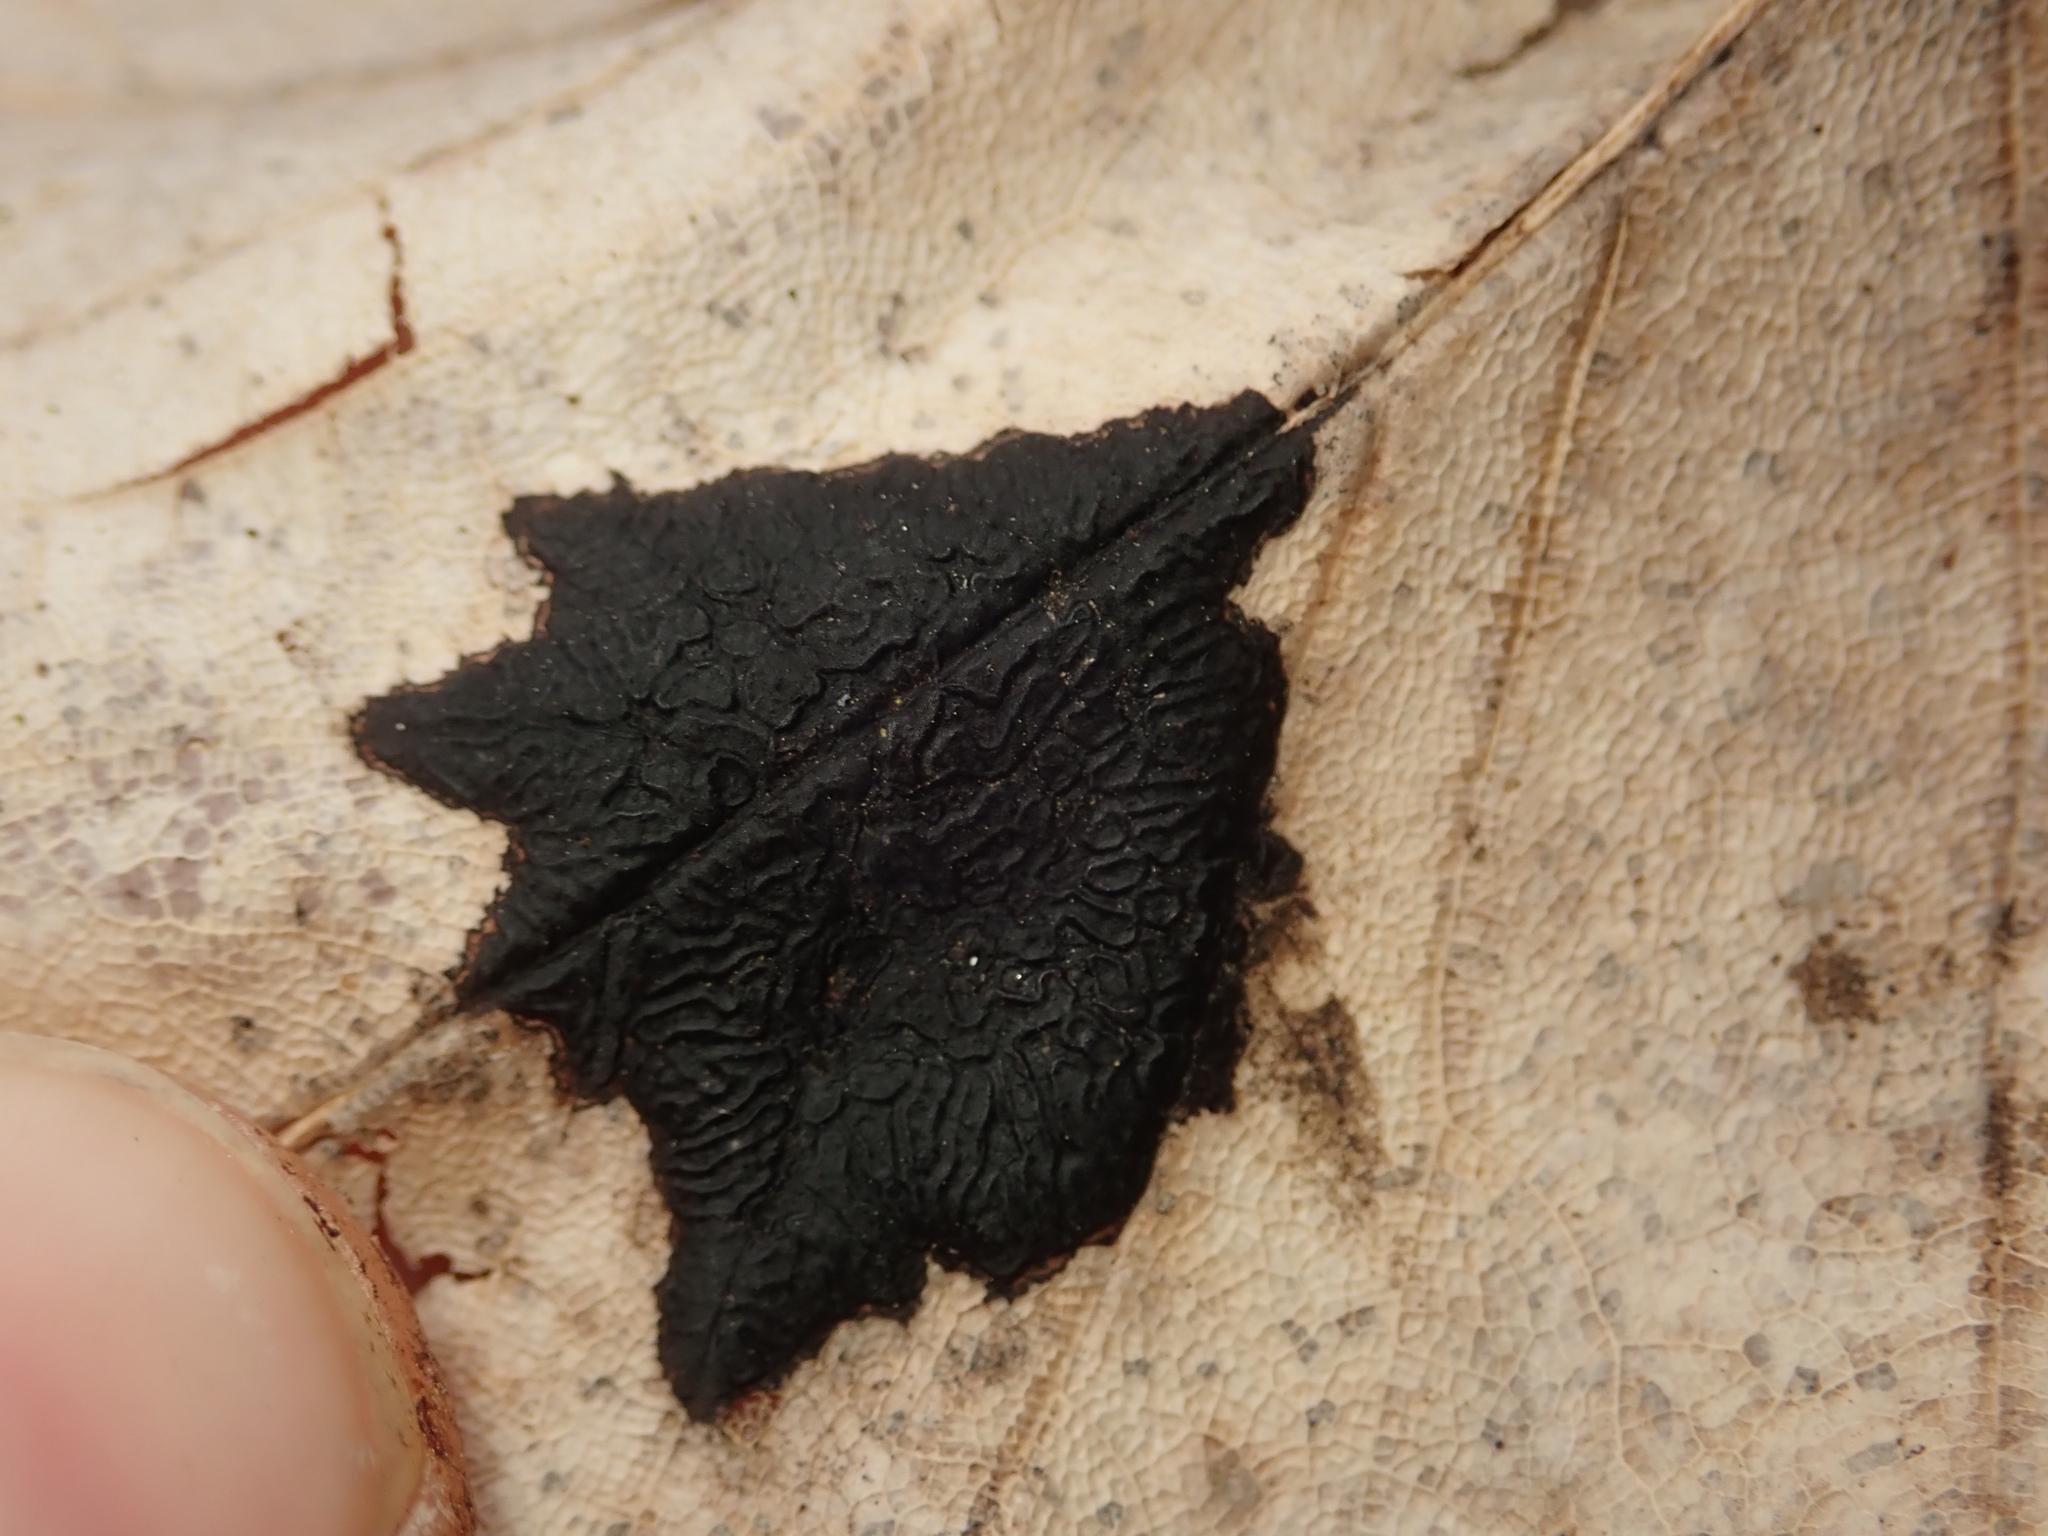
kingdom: Fungi
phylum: Ascomycota
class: Leotiomycetes
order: Rhytismatales
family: Rhytismataceae
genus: Rhytisma
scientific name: Rhytisma acerinum
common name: European tar spot
